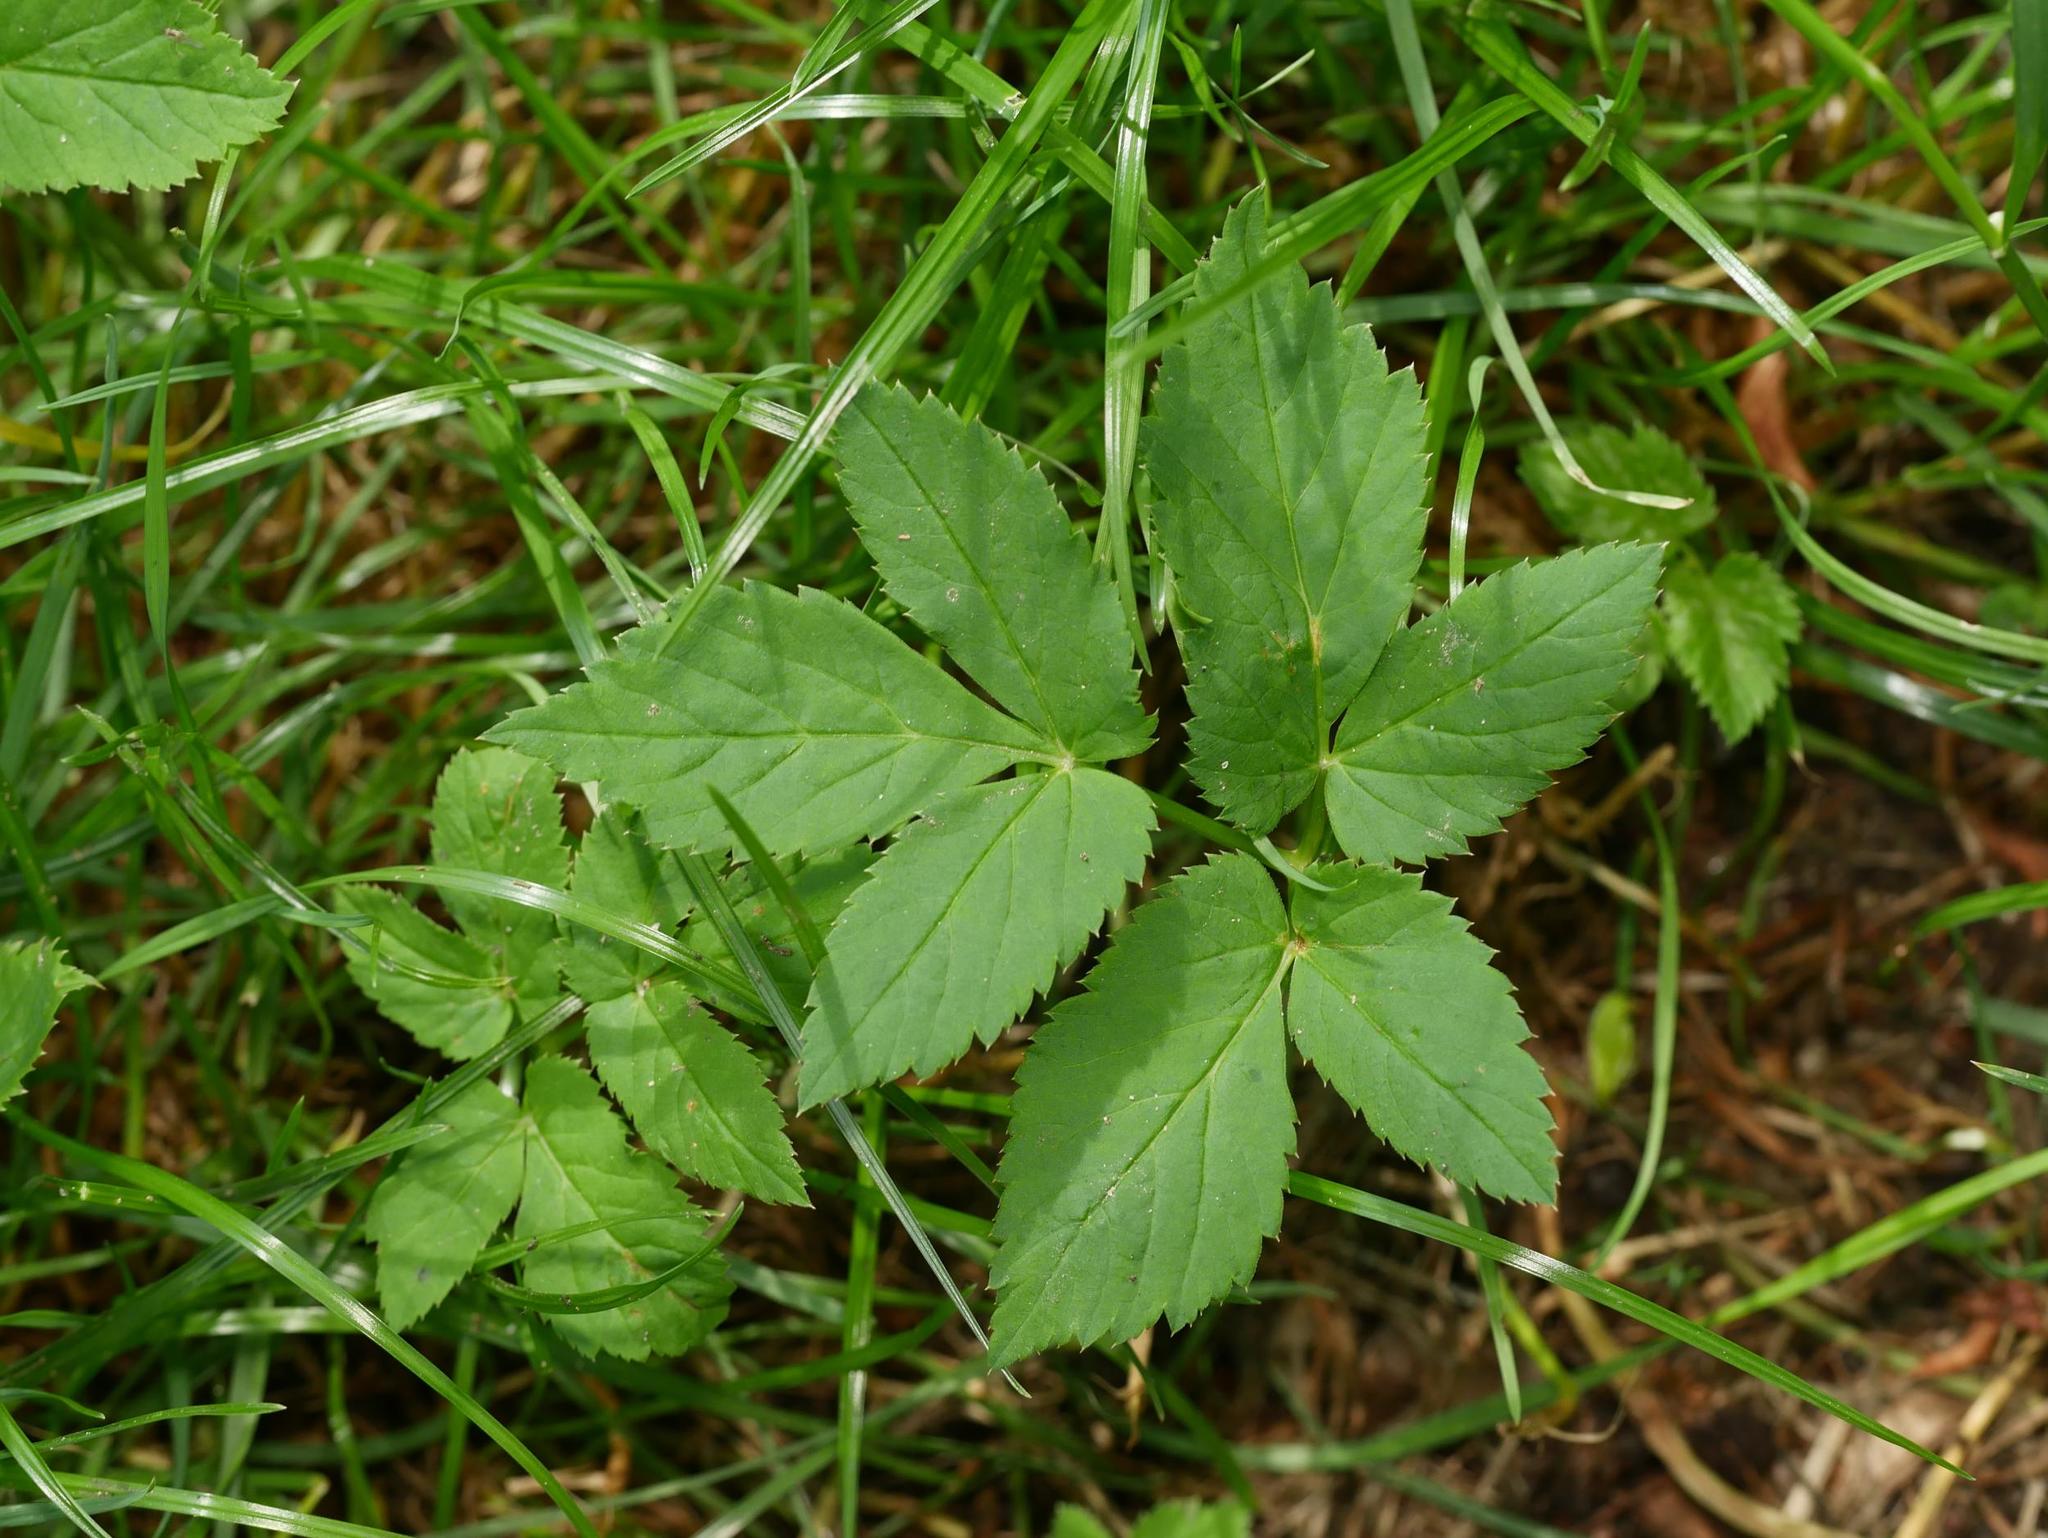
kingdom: Plantae
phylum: Tracheophyta
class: Magnoliopsida
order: Apiales
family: Apiaceae
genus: Aegopodium
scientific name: Aegopodium podagraria
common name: Ground-elder
